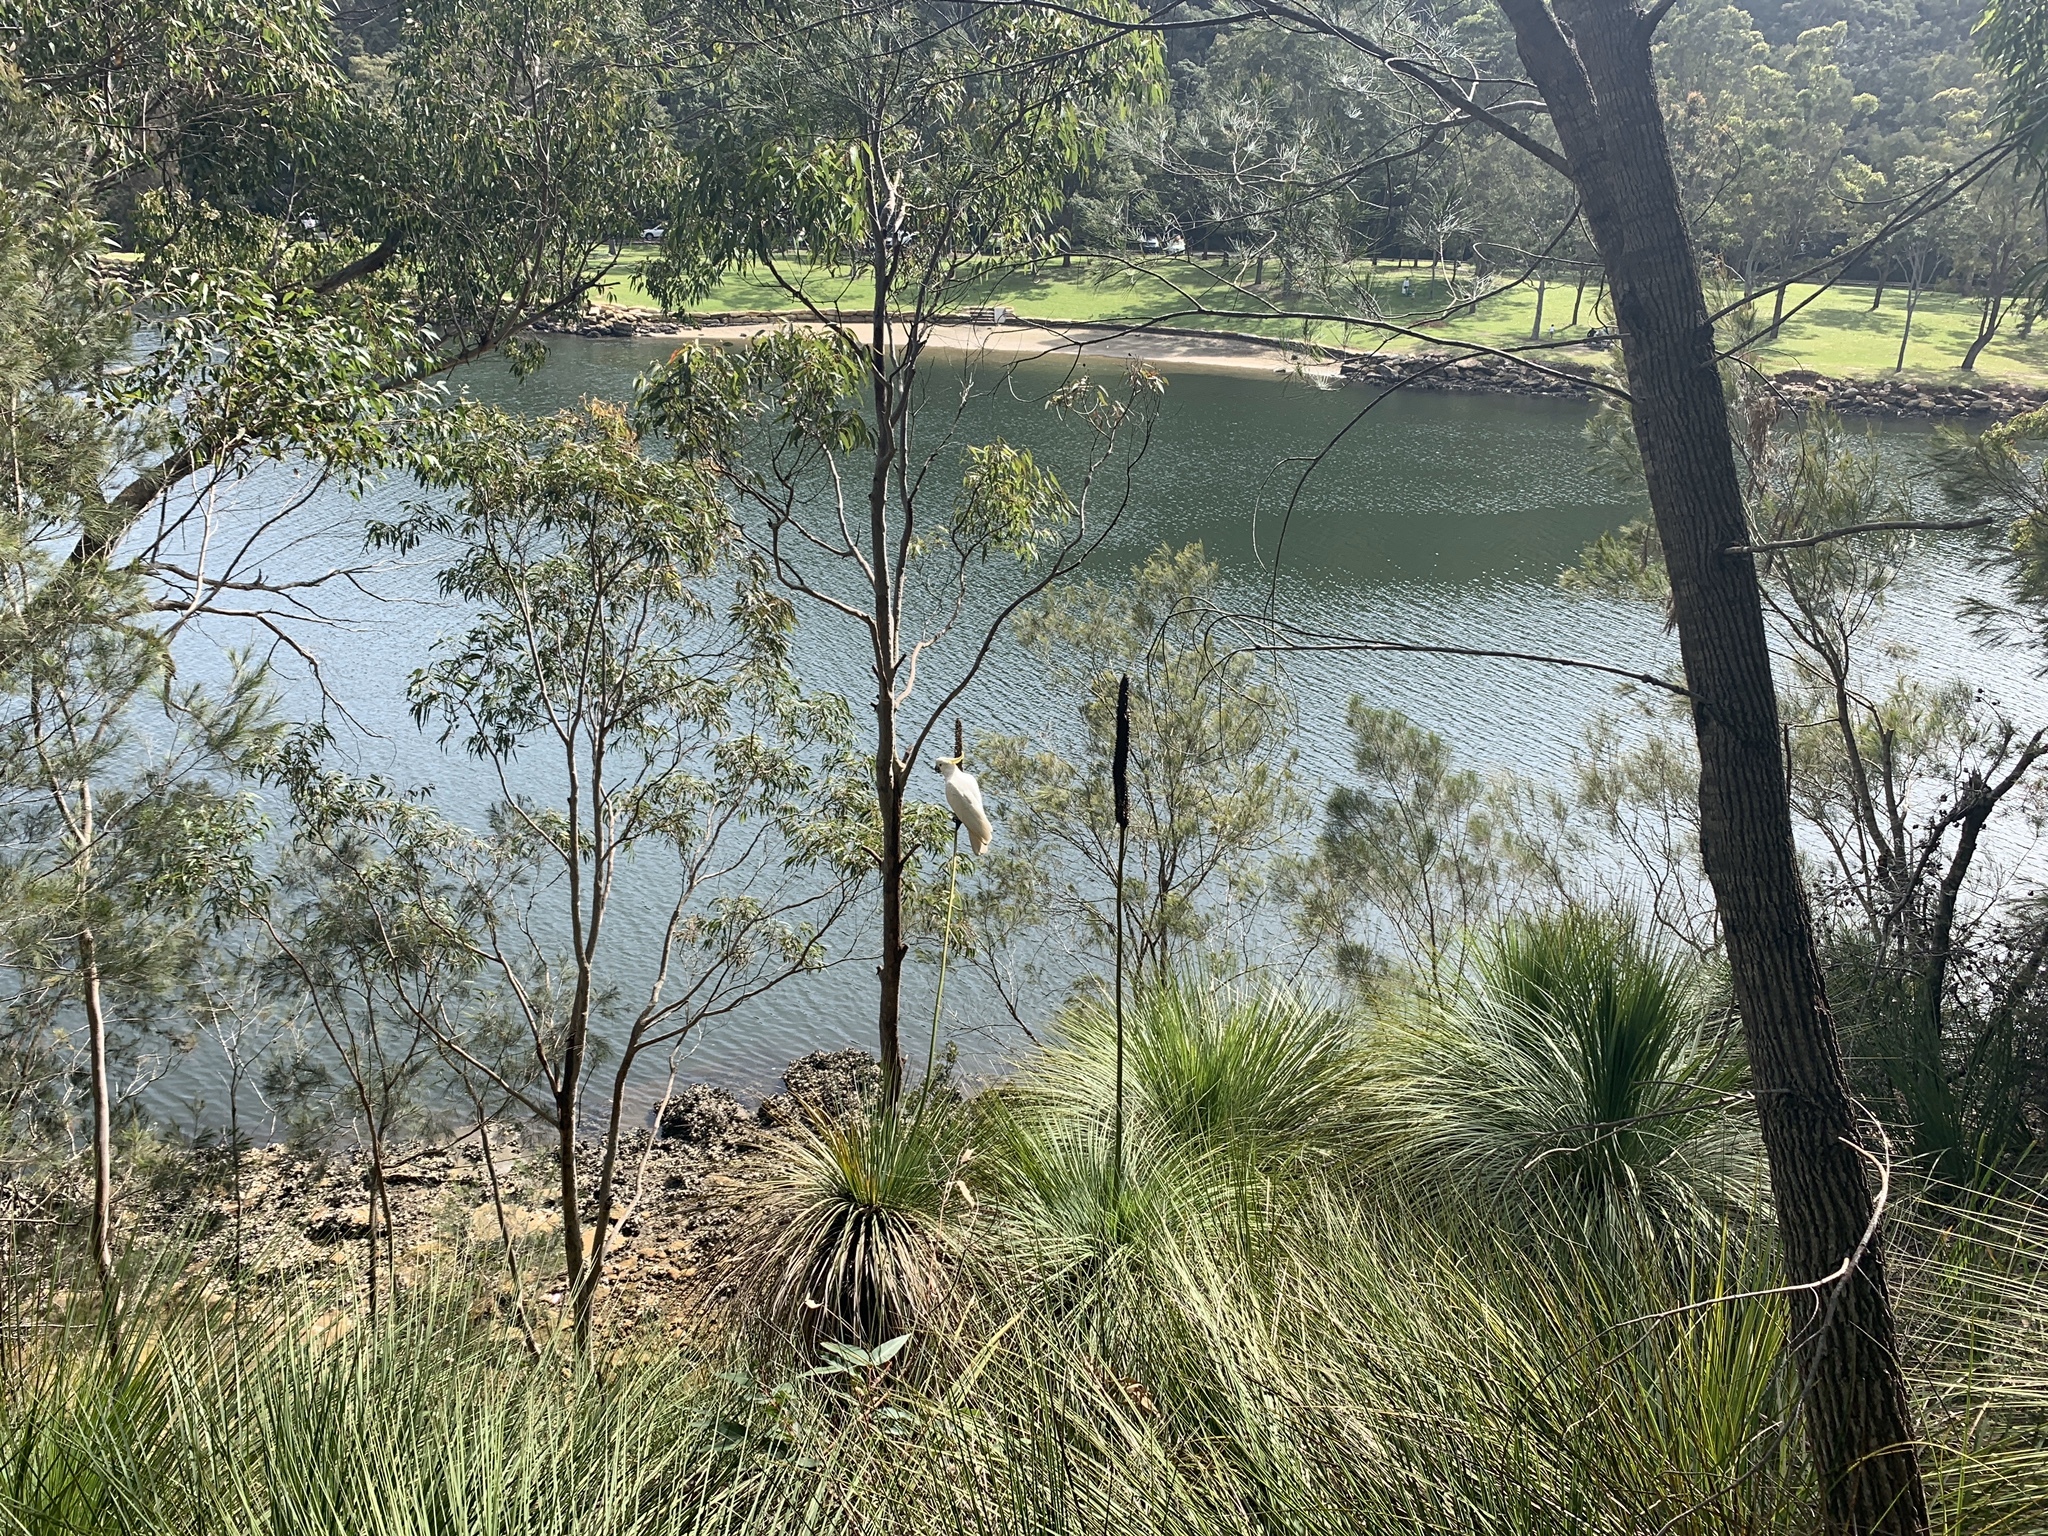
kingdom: Animalia
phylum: Chordata
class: Aves
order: Psittaciformes
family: Psittacidae
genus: Cacatua
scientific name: Cacatua galerita
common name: Sulphur-crested cockatoo
